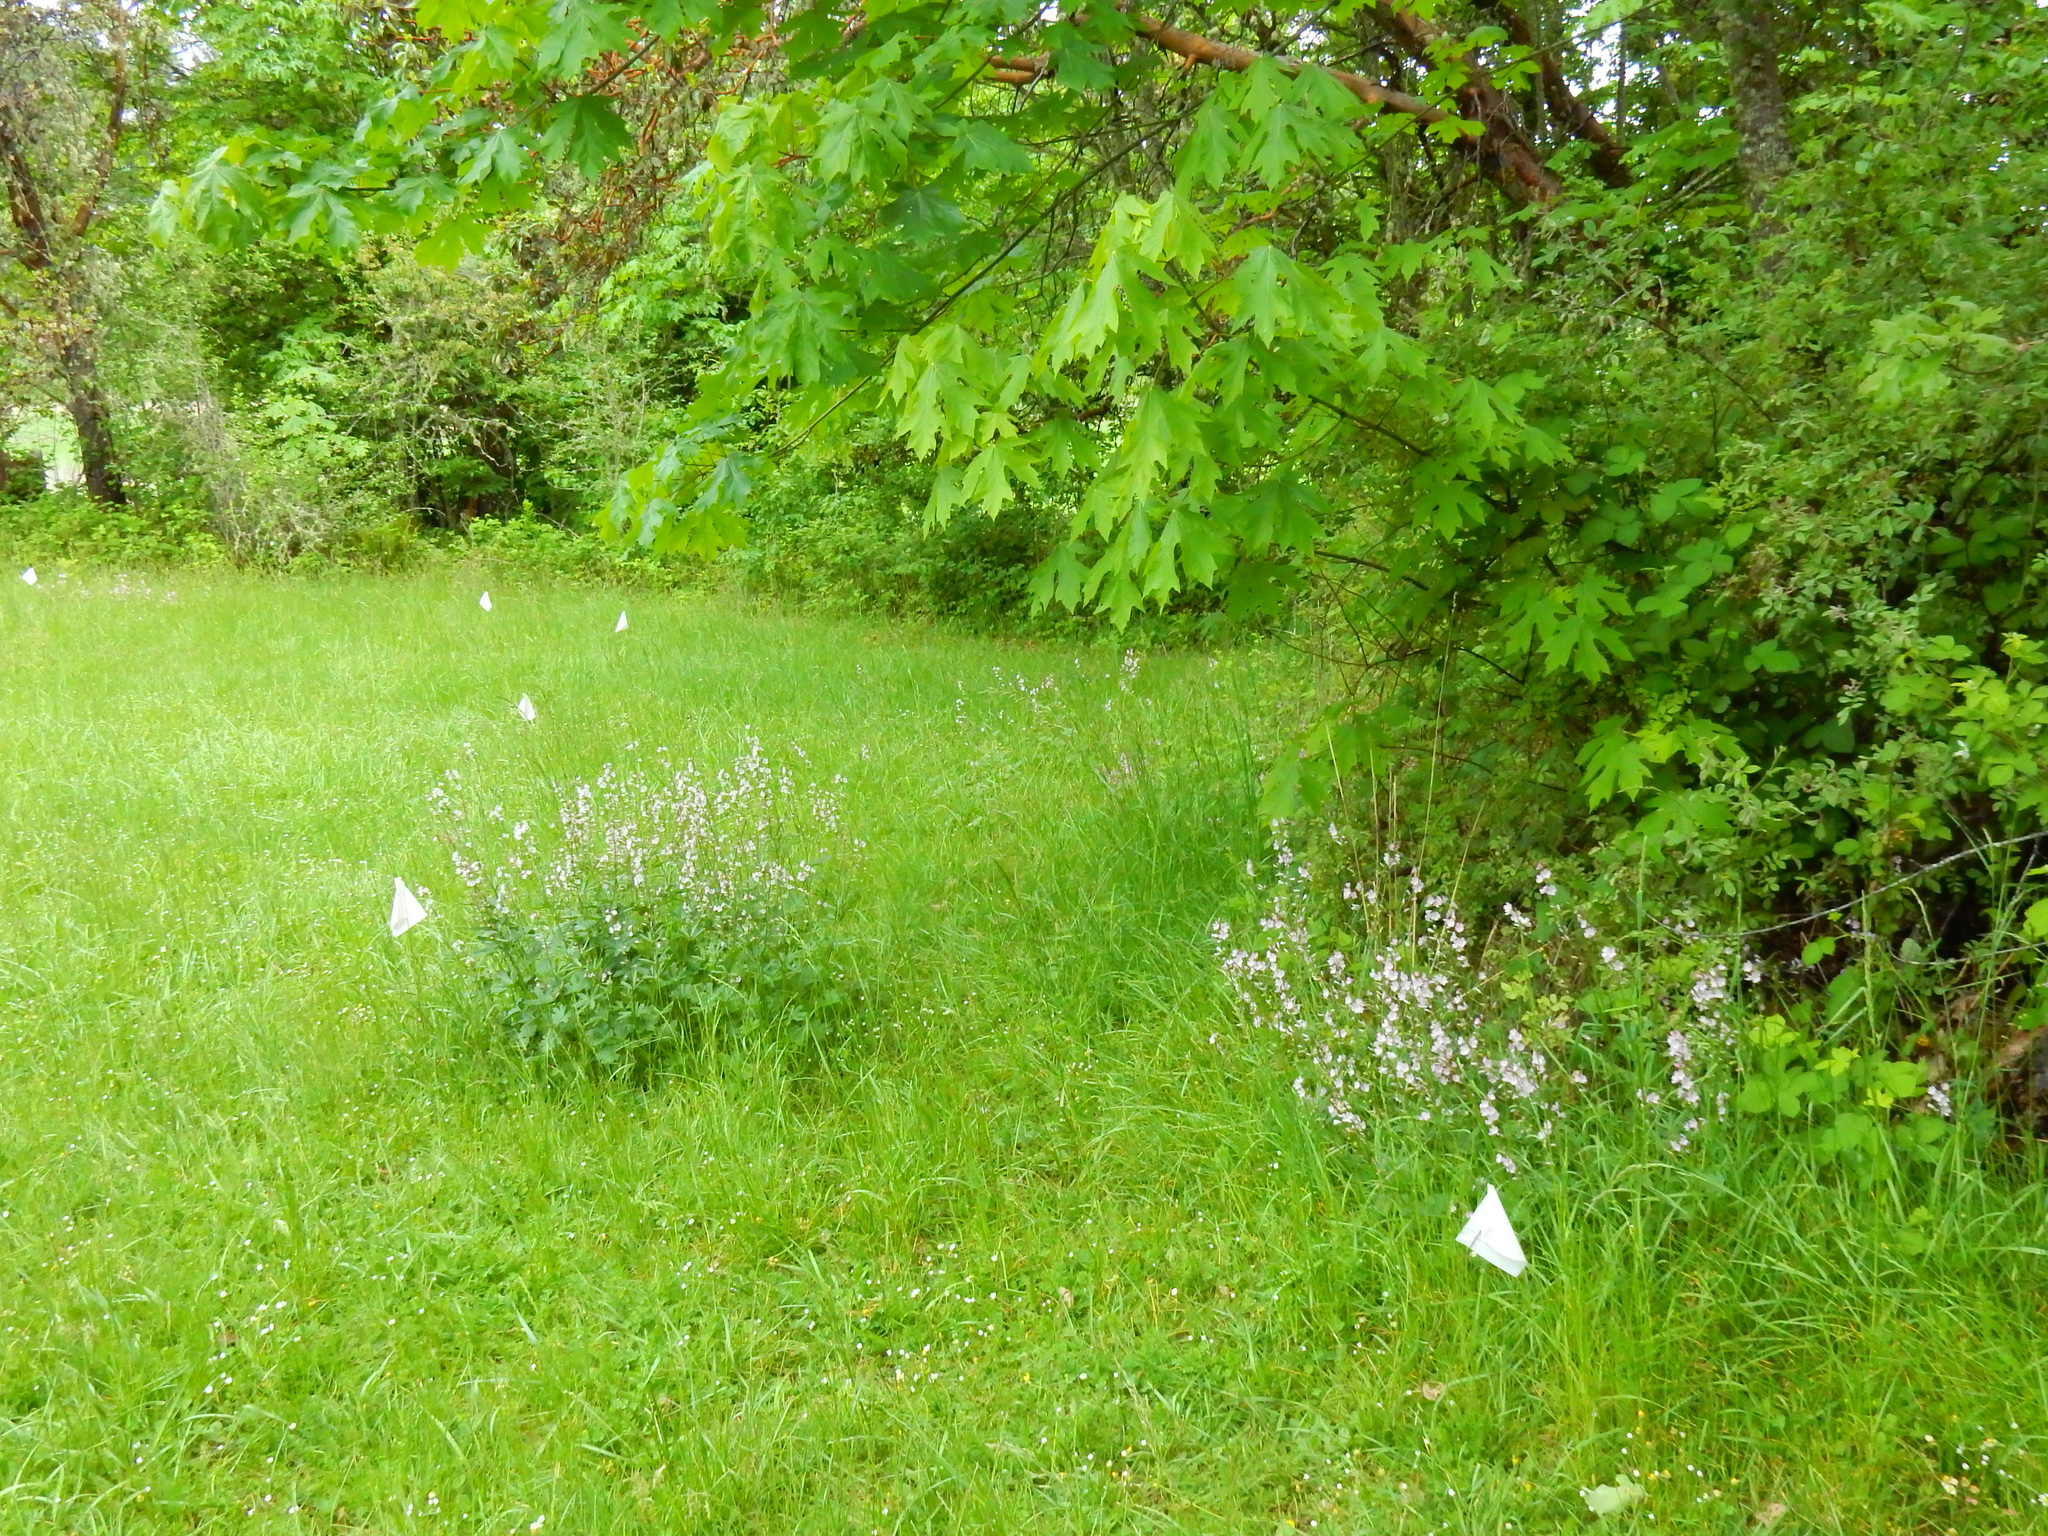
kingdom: Plantae
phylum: Tracheophyta
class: Magnoliopsida
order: Malvales
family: Malvaceae
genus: Sidalcea
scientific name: Sidalcea asprella
